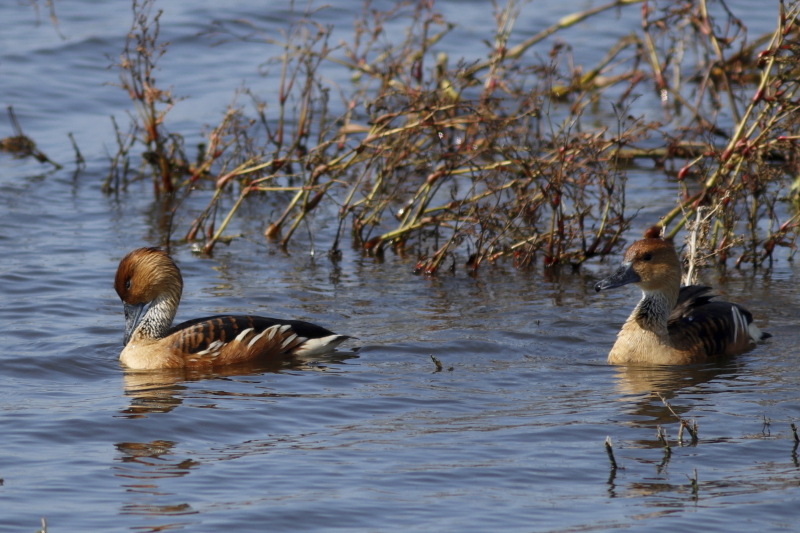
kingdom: Animalia
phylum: Chordata
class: Aves
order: Anseriformes
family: Anatidae
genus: Dendrocygna
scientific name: Dendrocygna bicolor
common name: Fulvous whistling duck
